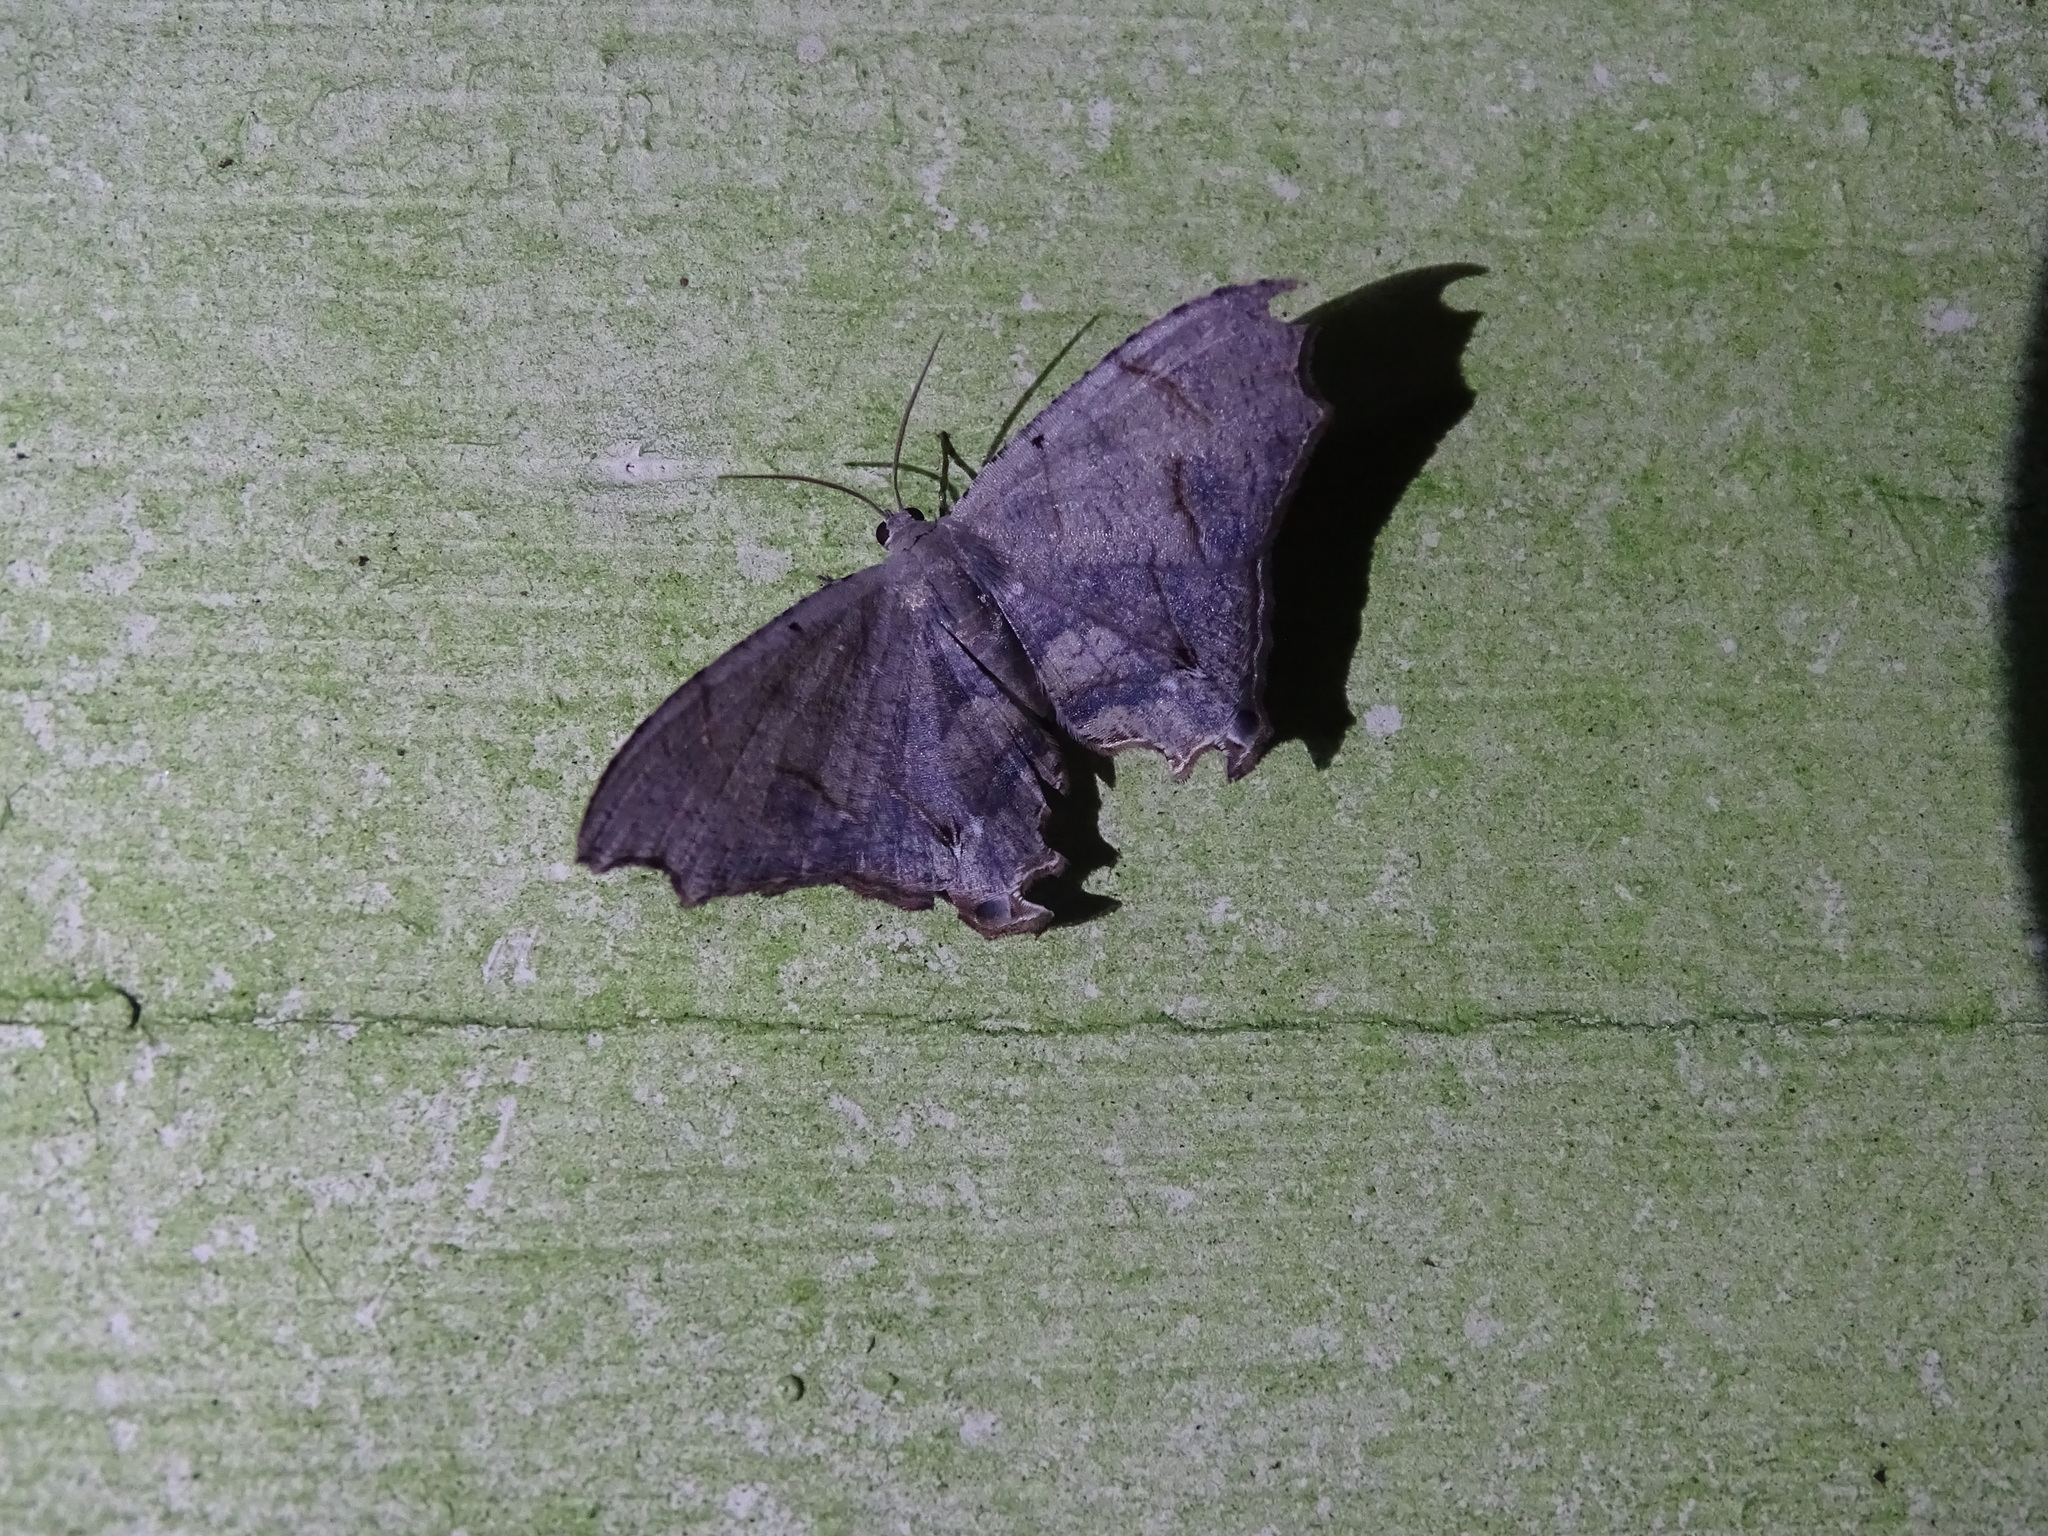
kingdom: Animalia
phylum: Arthropoda
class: Insecta
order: Lepidoptera
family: Uraniidae
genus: Trotorhombia
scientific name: Trotorhombia metachromata
